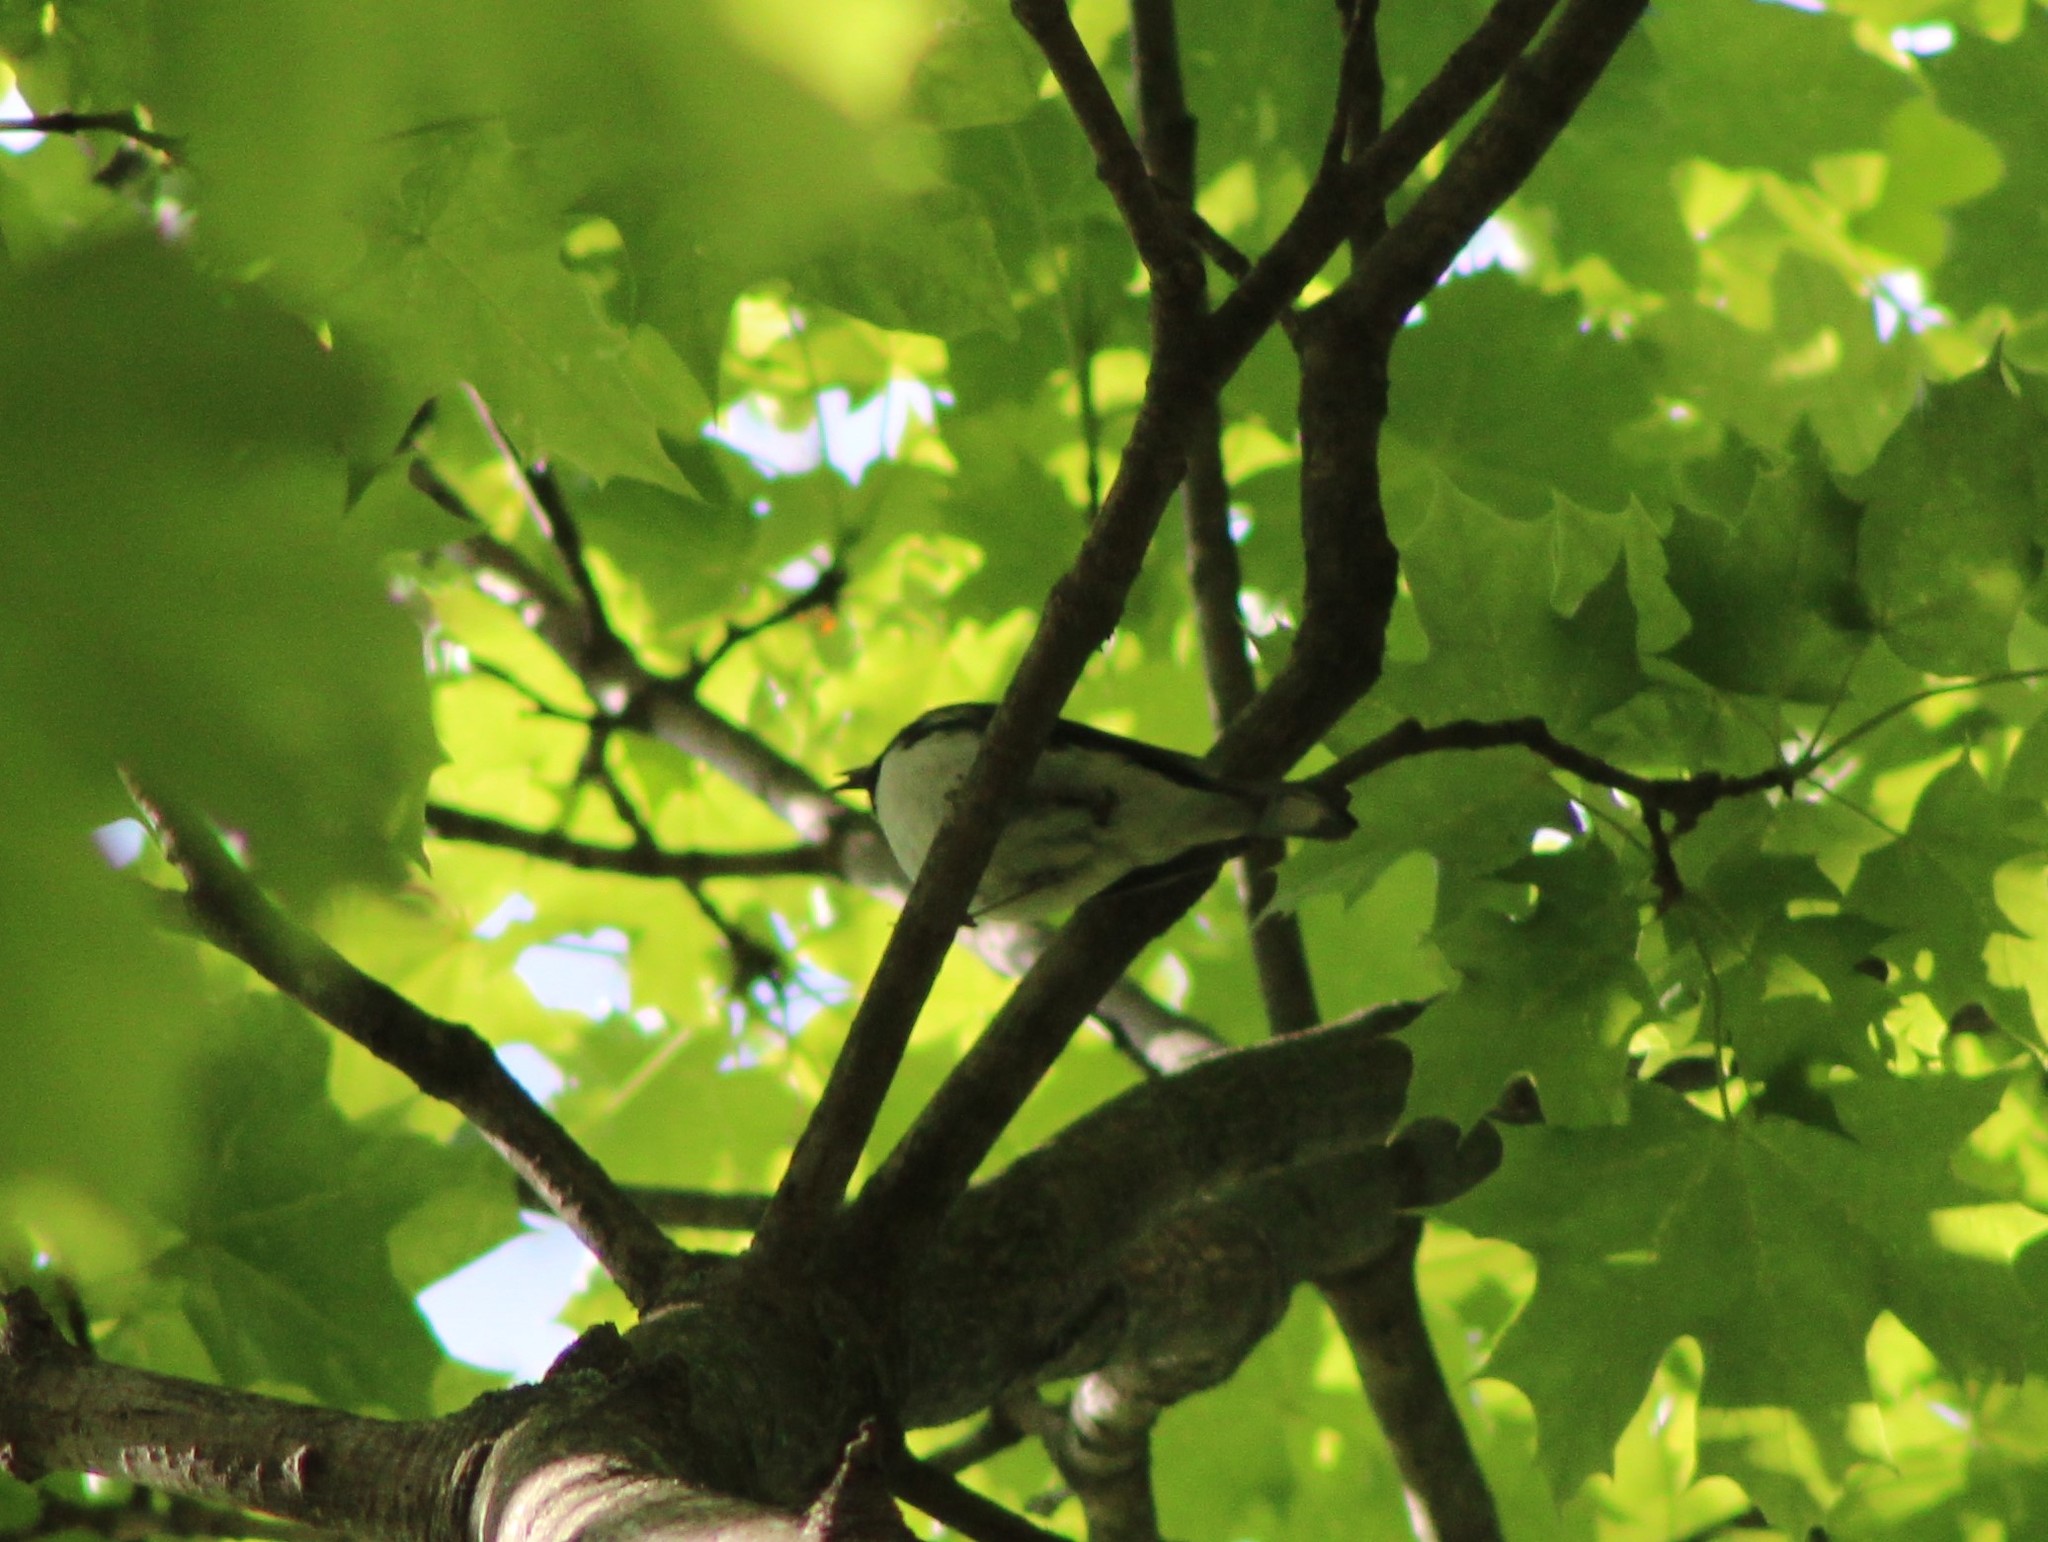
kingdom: Animalia
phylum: Chordata
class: Aves
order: Passeriformes
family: Parulidae
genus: Setophaga
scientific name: Setophaga caerulescens
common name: Black-throated blue warbler
